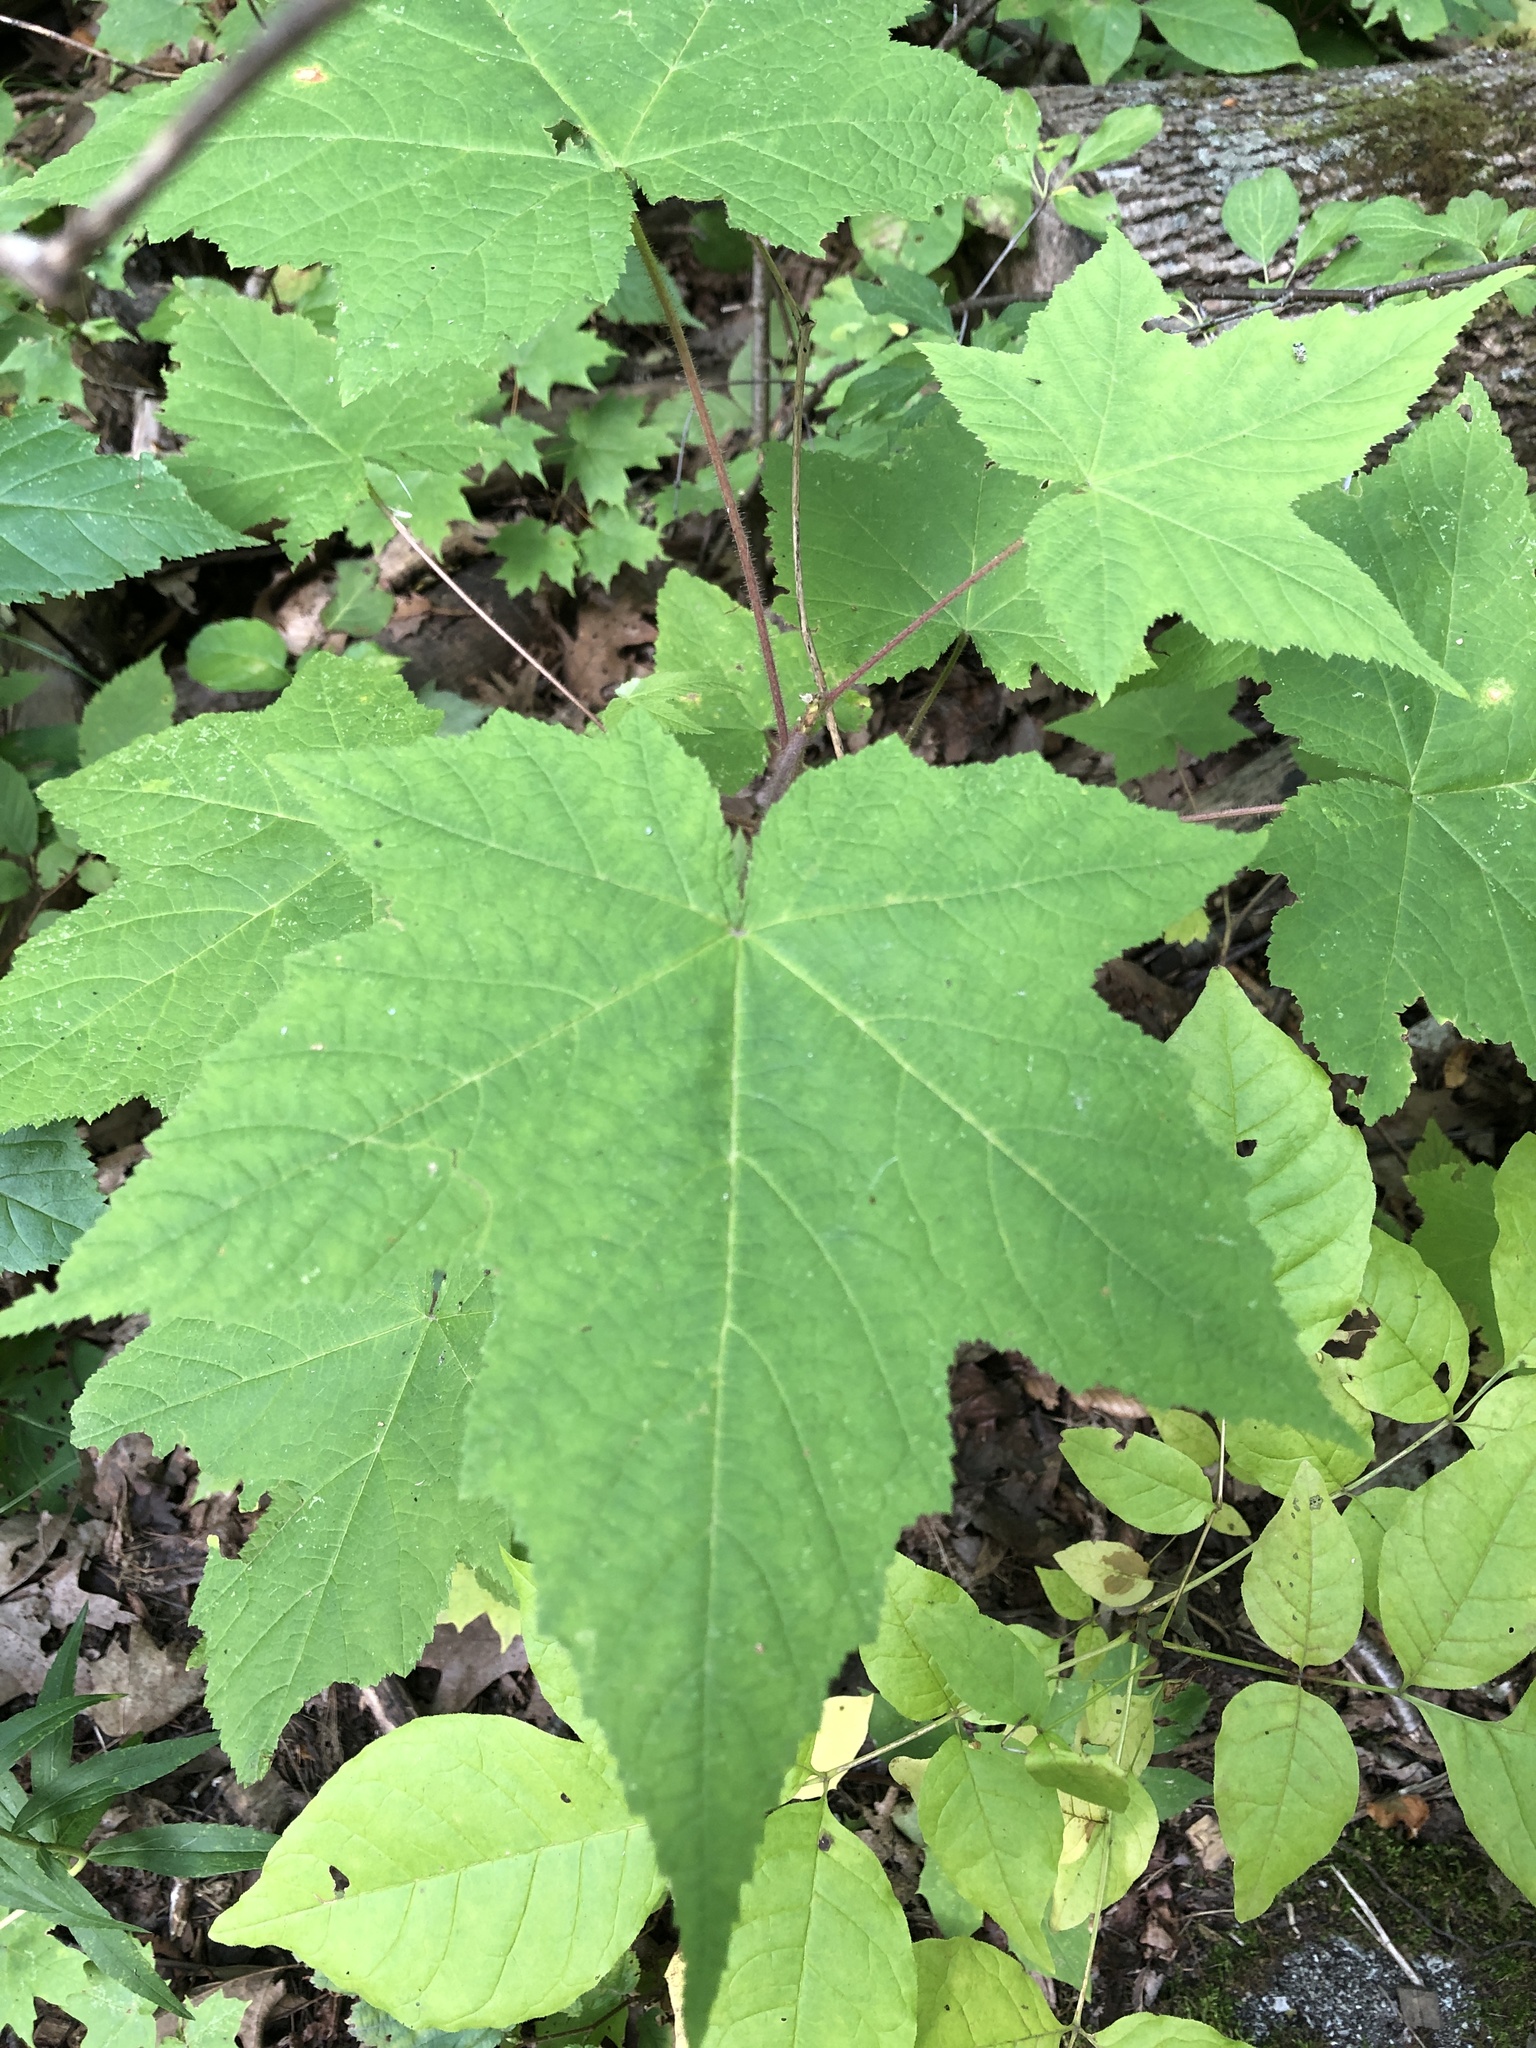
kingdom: Plantae
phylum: Tracheophyta
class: Magnoliopsida
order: Rosales
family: Rosaceae
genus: Rubus
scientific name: Rubus odoratus
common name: Purple-flowered raspberry
